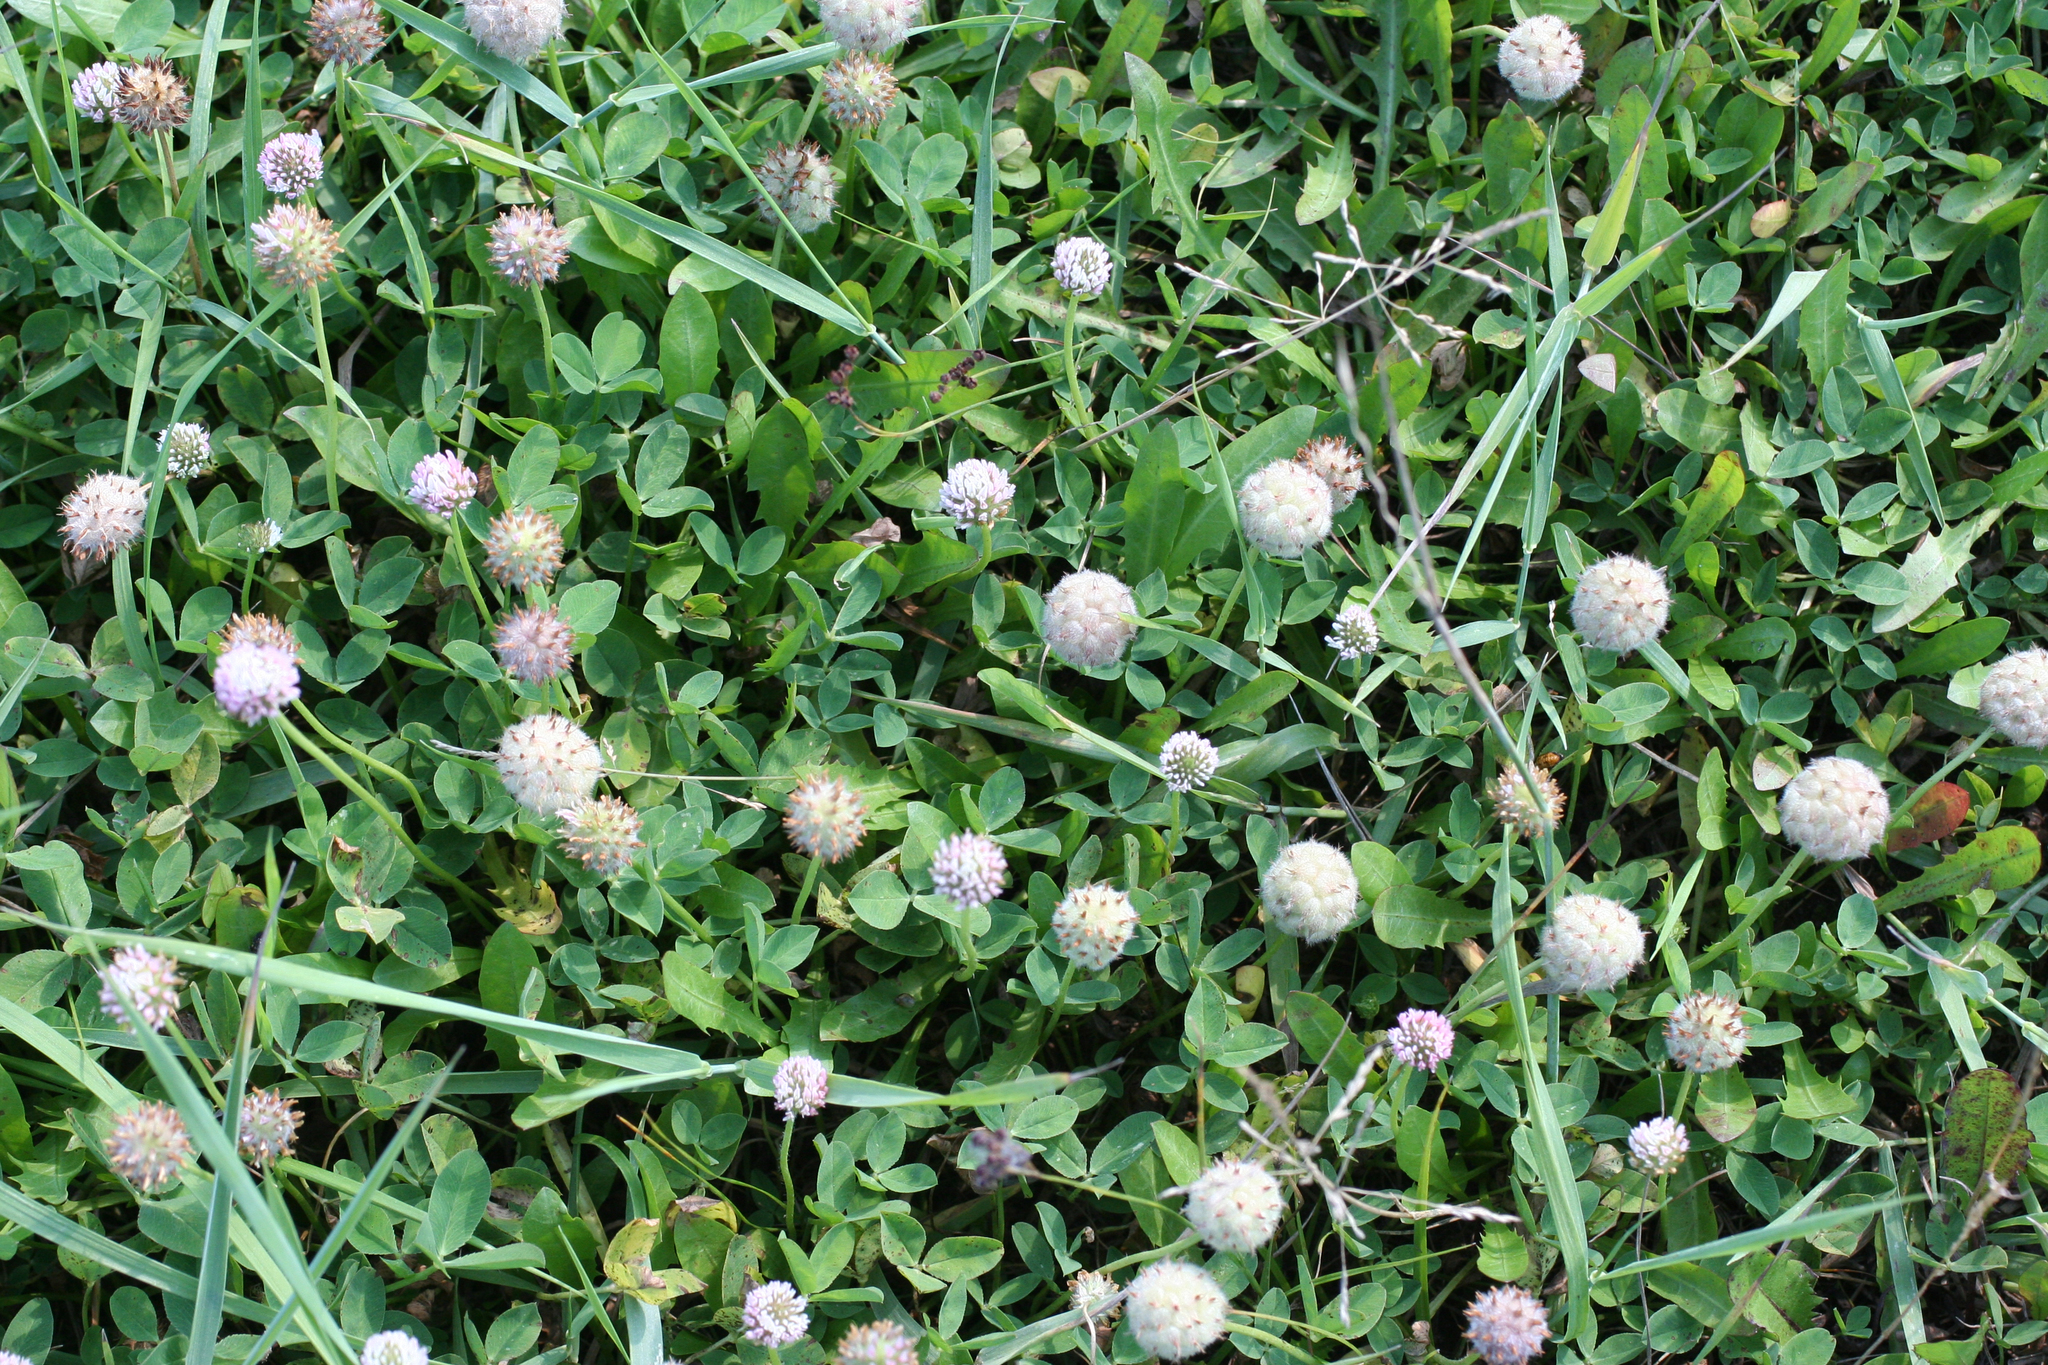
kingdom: Plantae
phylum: Tracheophyta
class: Magnoliopsida
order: Fabales
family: Fabaceae
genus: Trifolium
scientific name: Trifolium fragiferum
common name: Strawberry clover
